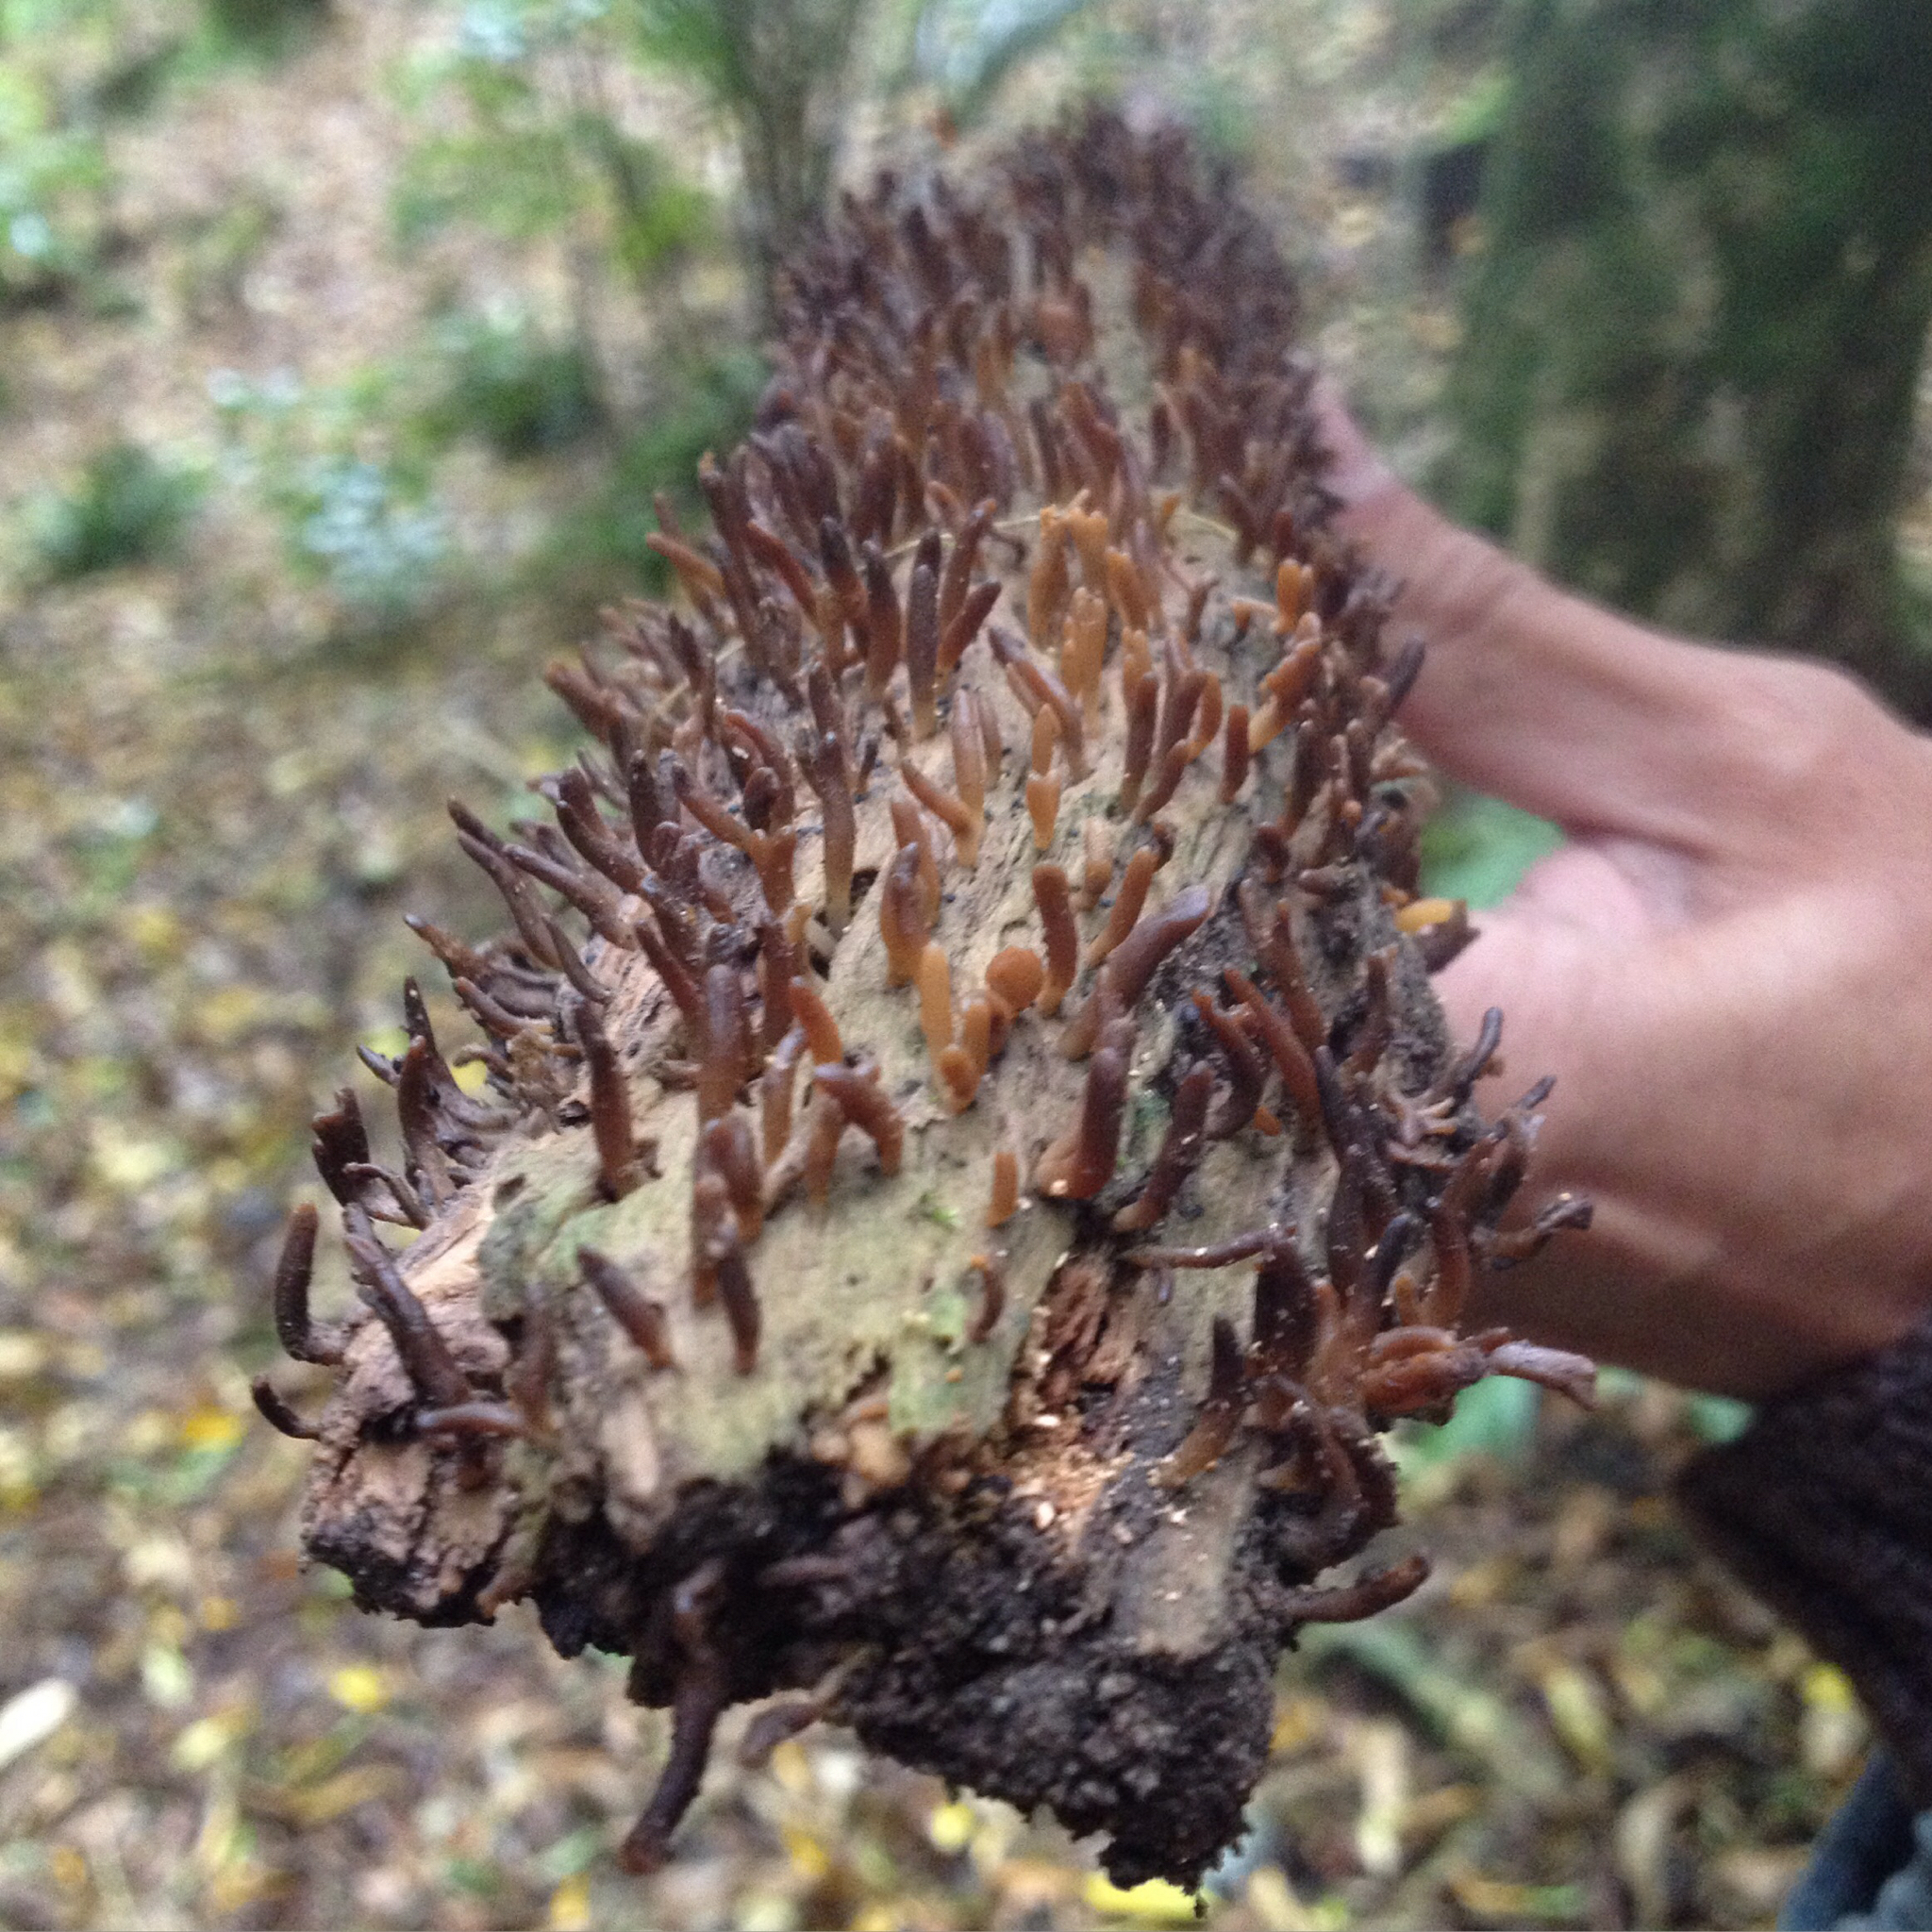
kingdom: Fungi
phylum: Basidiomycota
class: Dacrymycetes
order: Dacrymycetales
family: Dacrymycetaceae
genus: Calocera
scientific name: Calocera fusca
